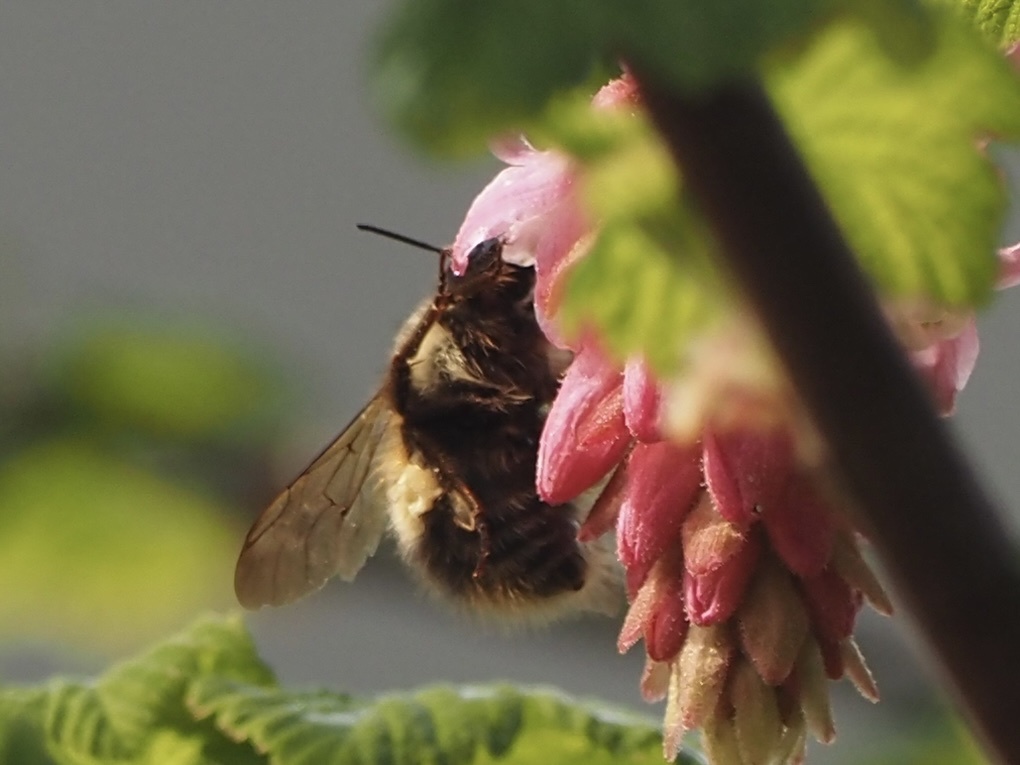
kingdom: Animalia
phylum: Arthropoda
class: Insecta
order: Hymenoptera
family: Apidae
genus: Bombus
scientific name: Bombus sitkensis
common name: Sitka bumble bee
